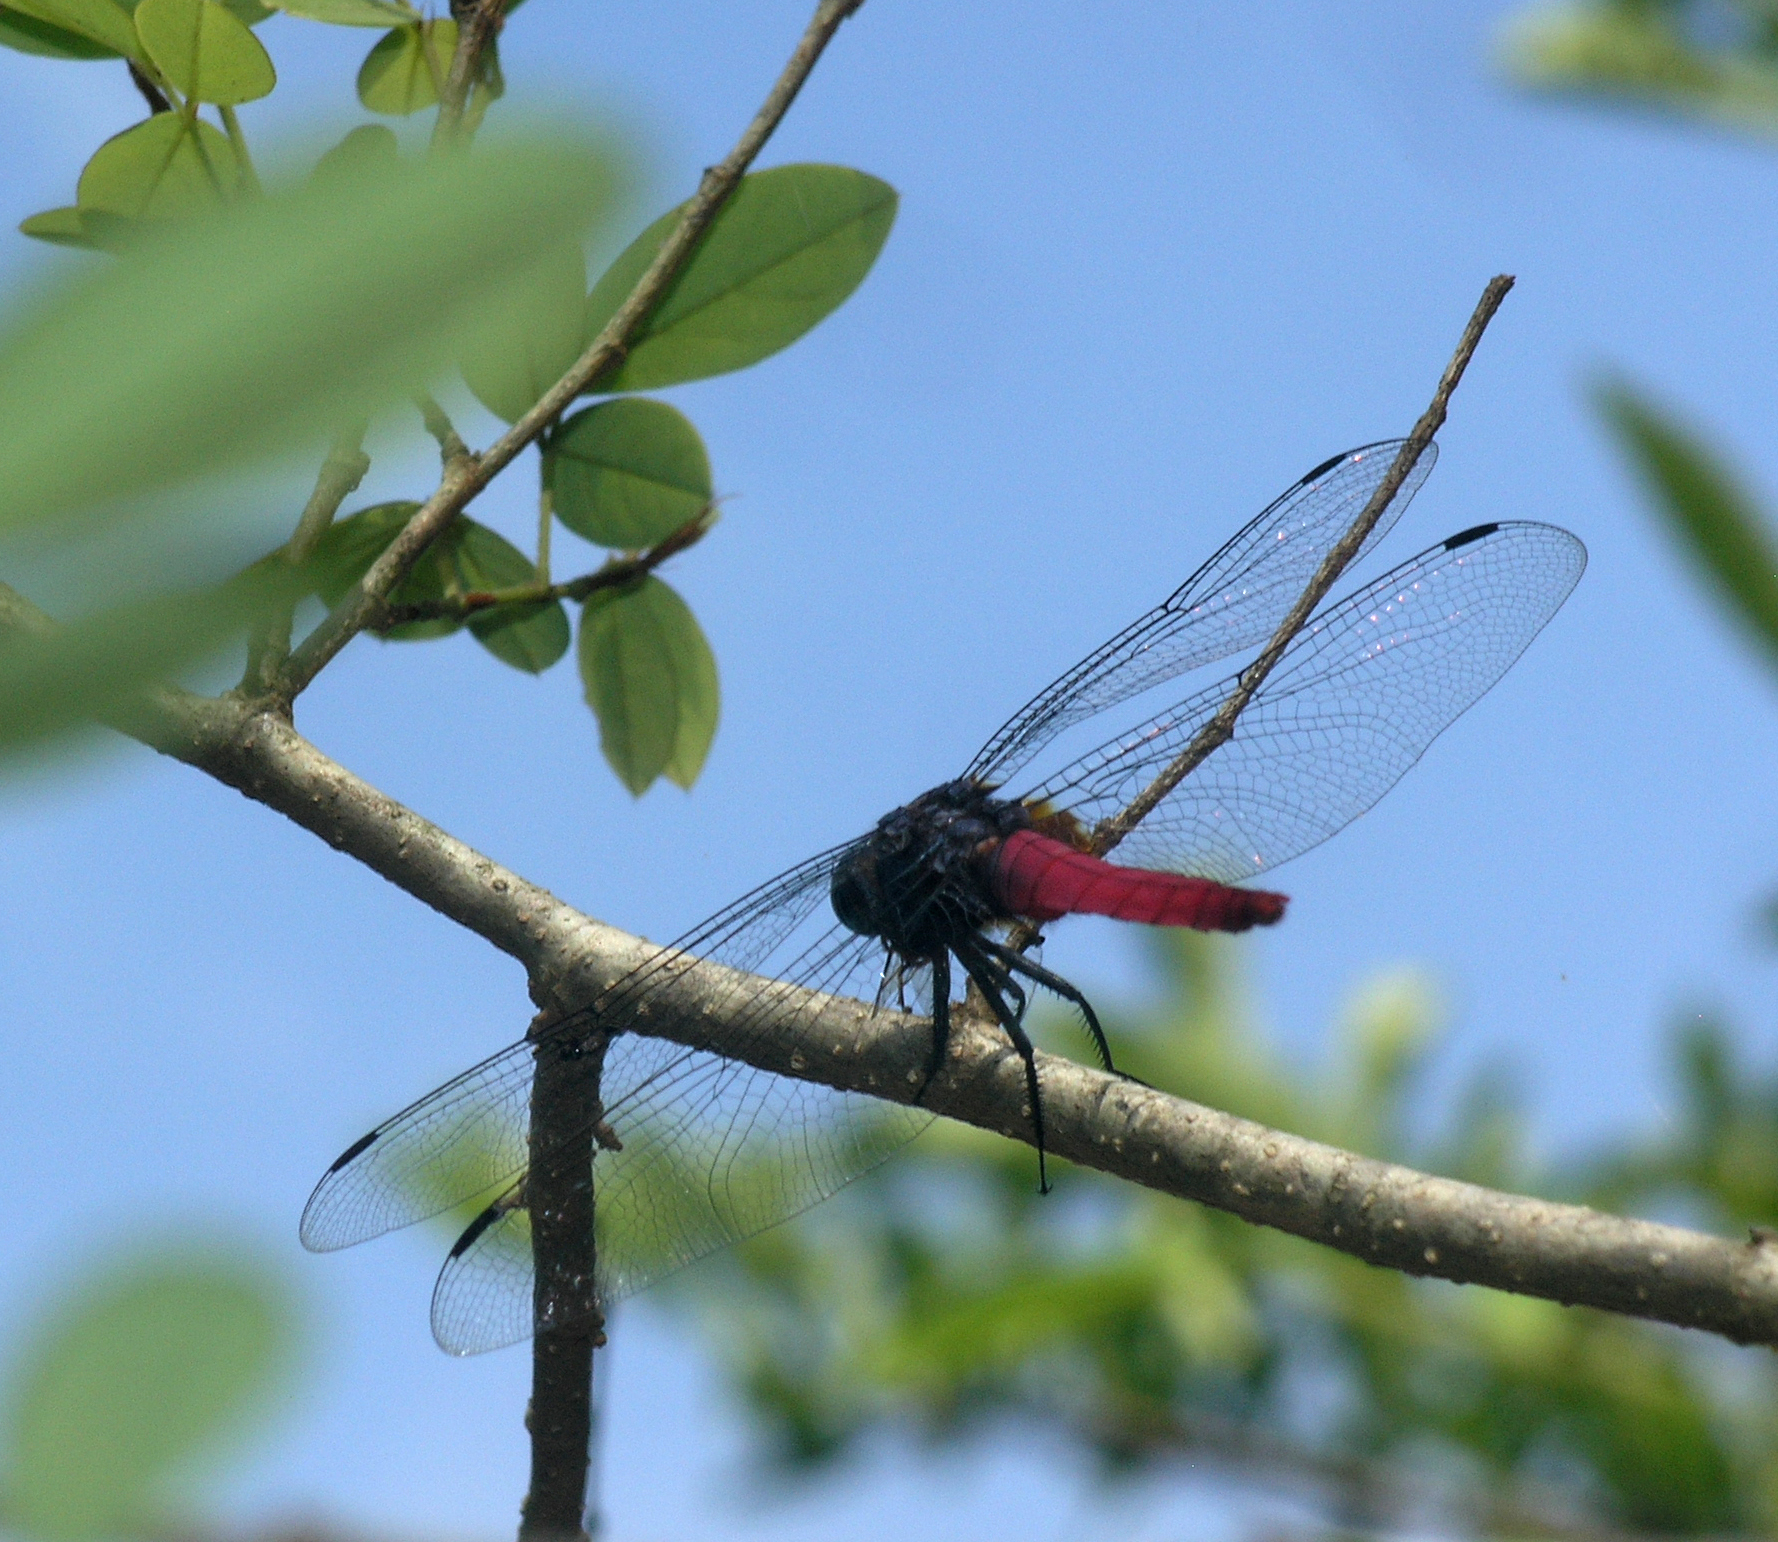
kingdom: Animalia
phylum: Arthropoda
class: Insecta
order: Odonata
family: Libellulidae
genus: Orthetrum
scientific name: Orthetrum pruinosum
